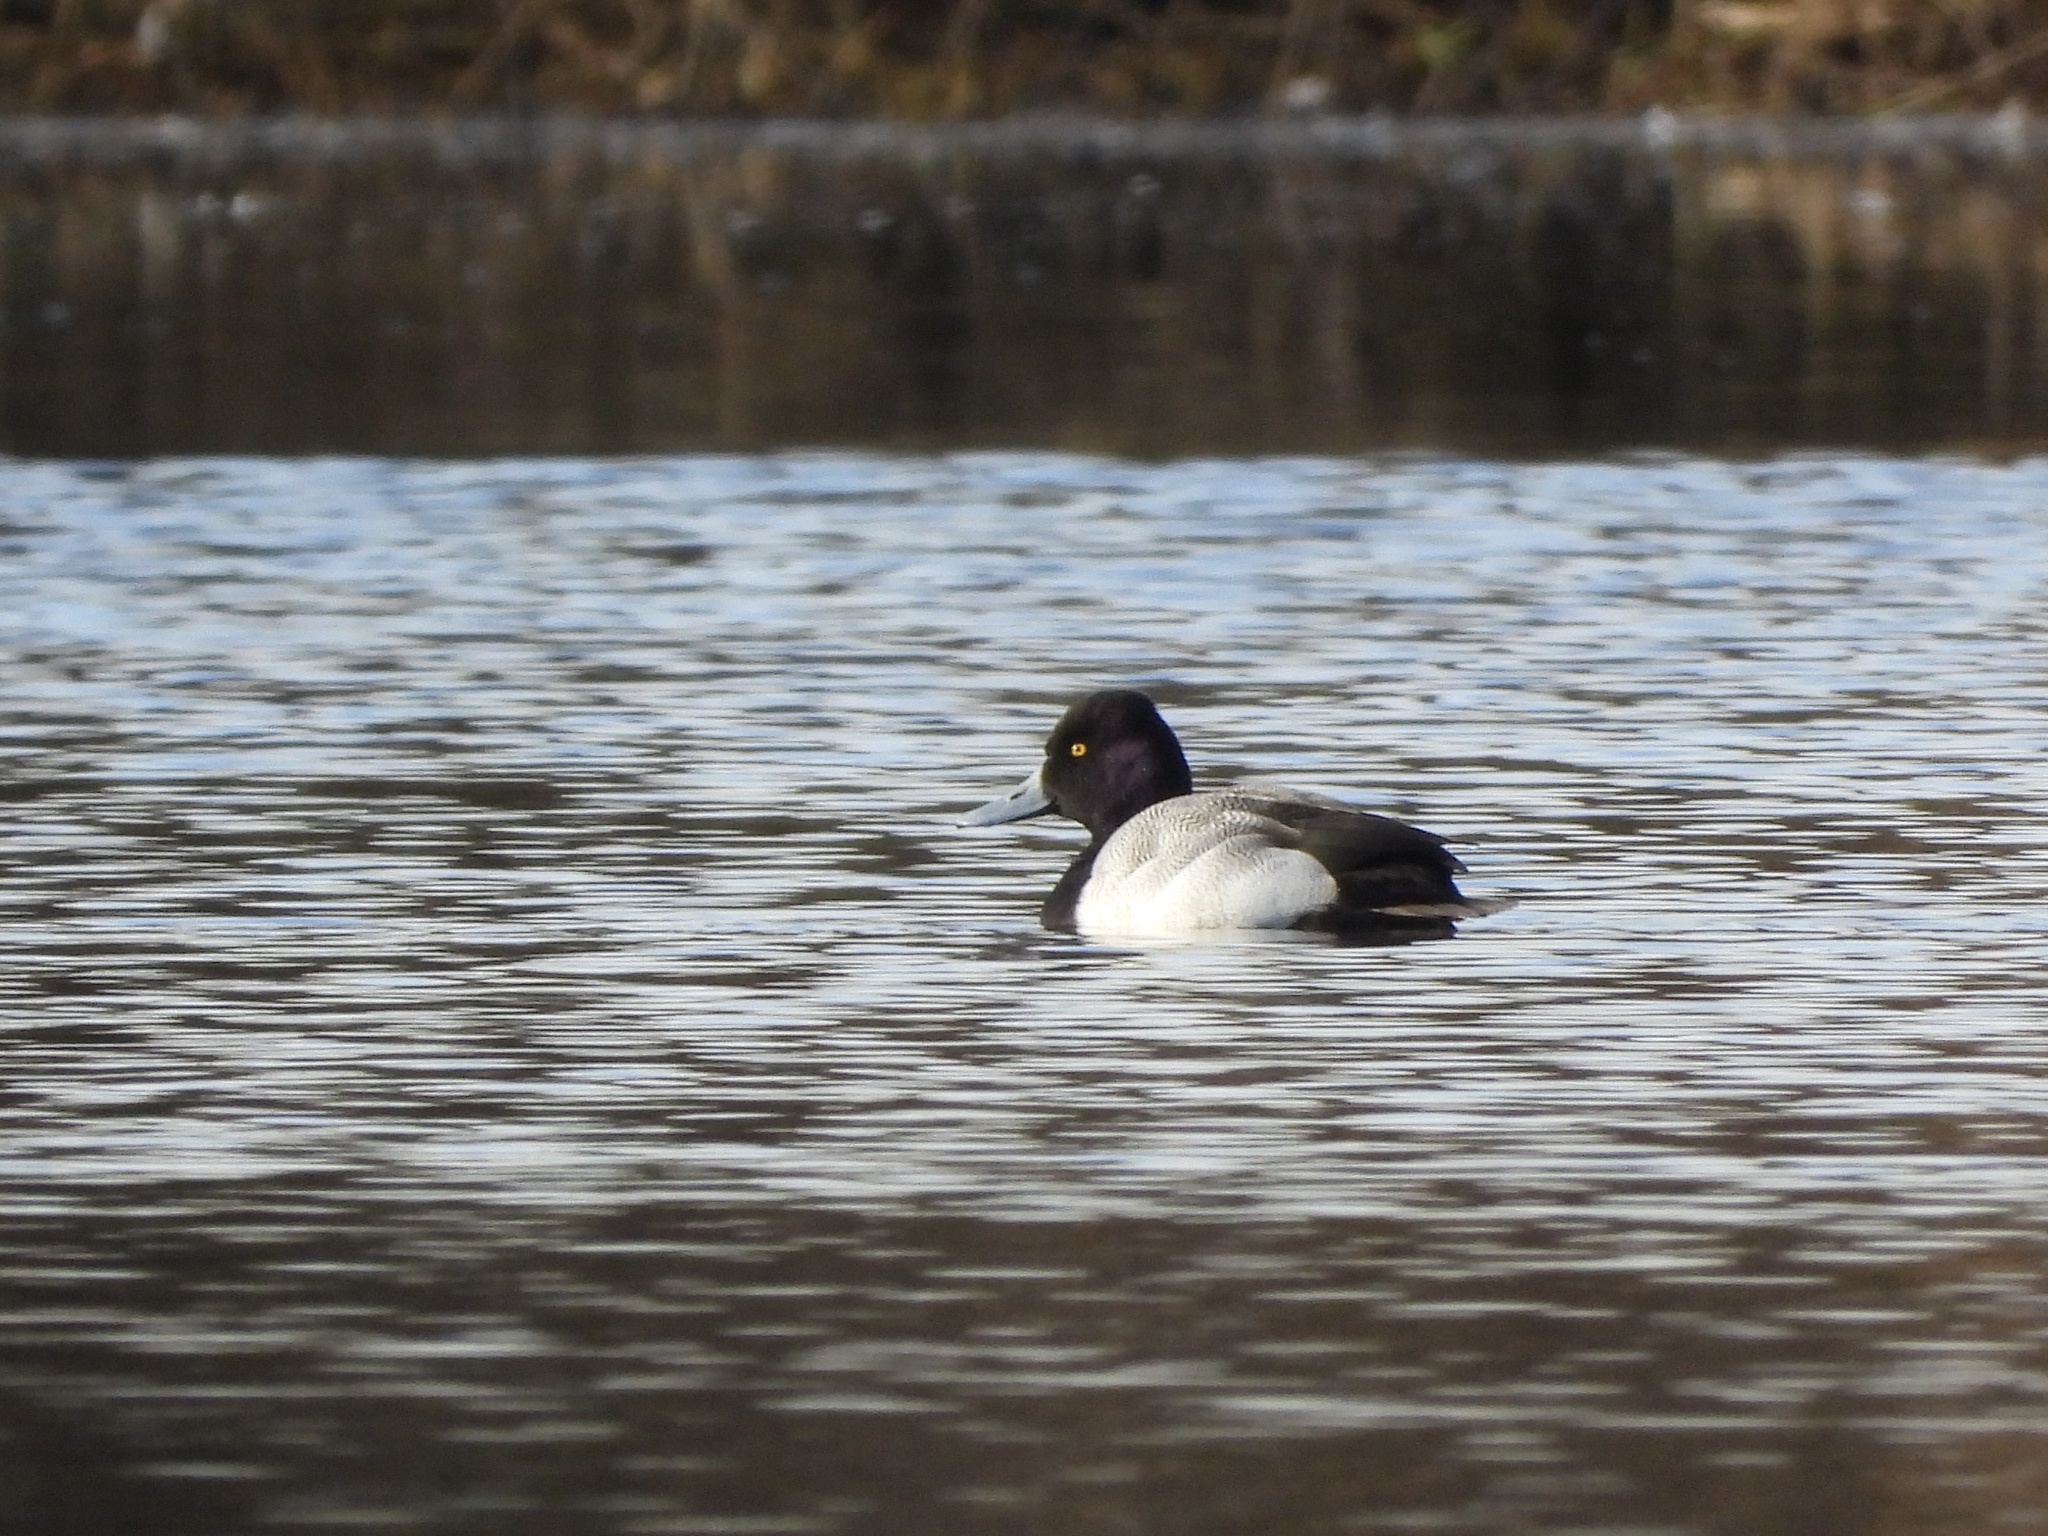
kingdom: Animalia
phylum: Chordata
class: Aves
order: Anseriformes
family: Anatidae
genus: Aythya
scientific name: Aythya affinis
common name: Lesser scaup
